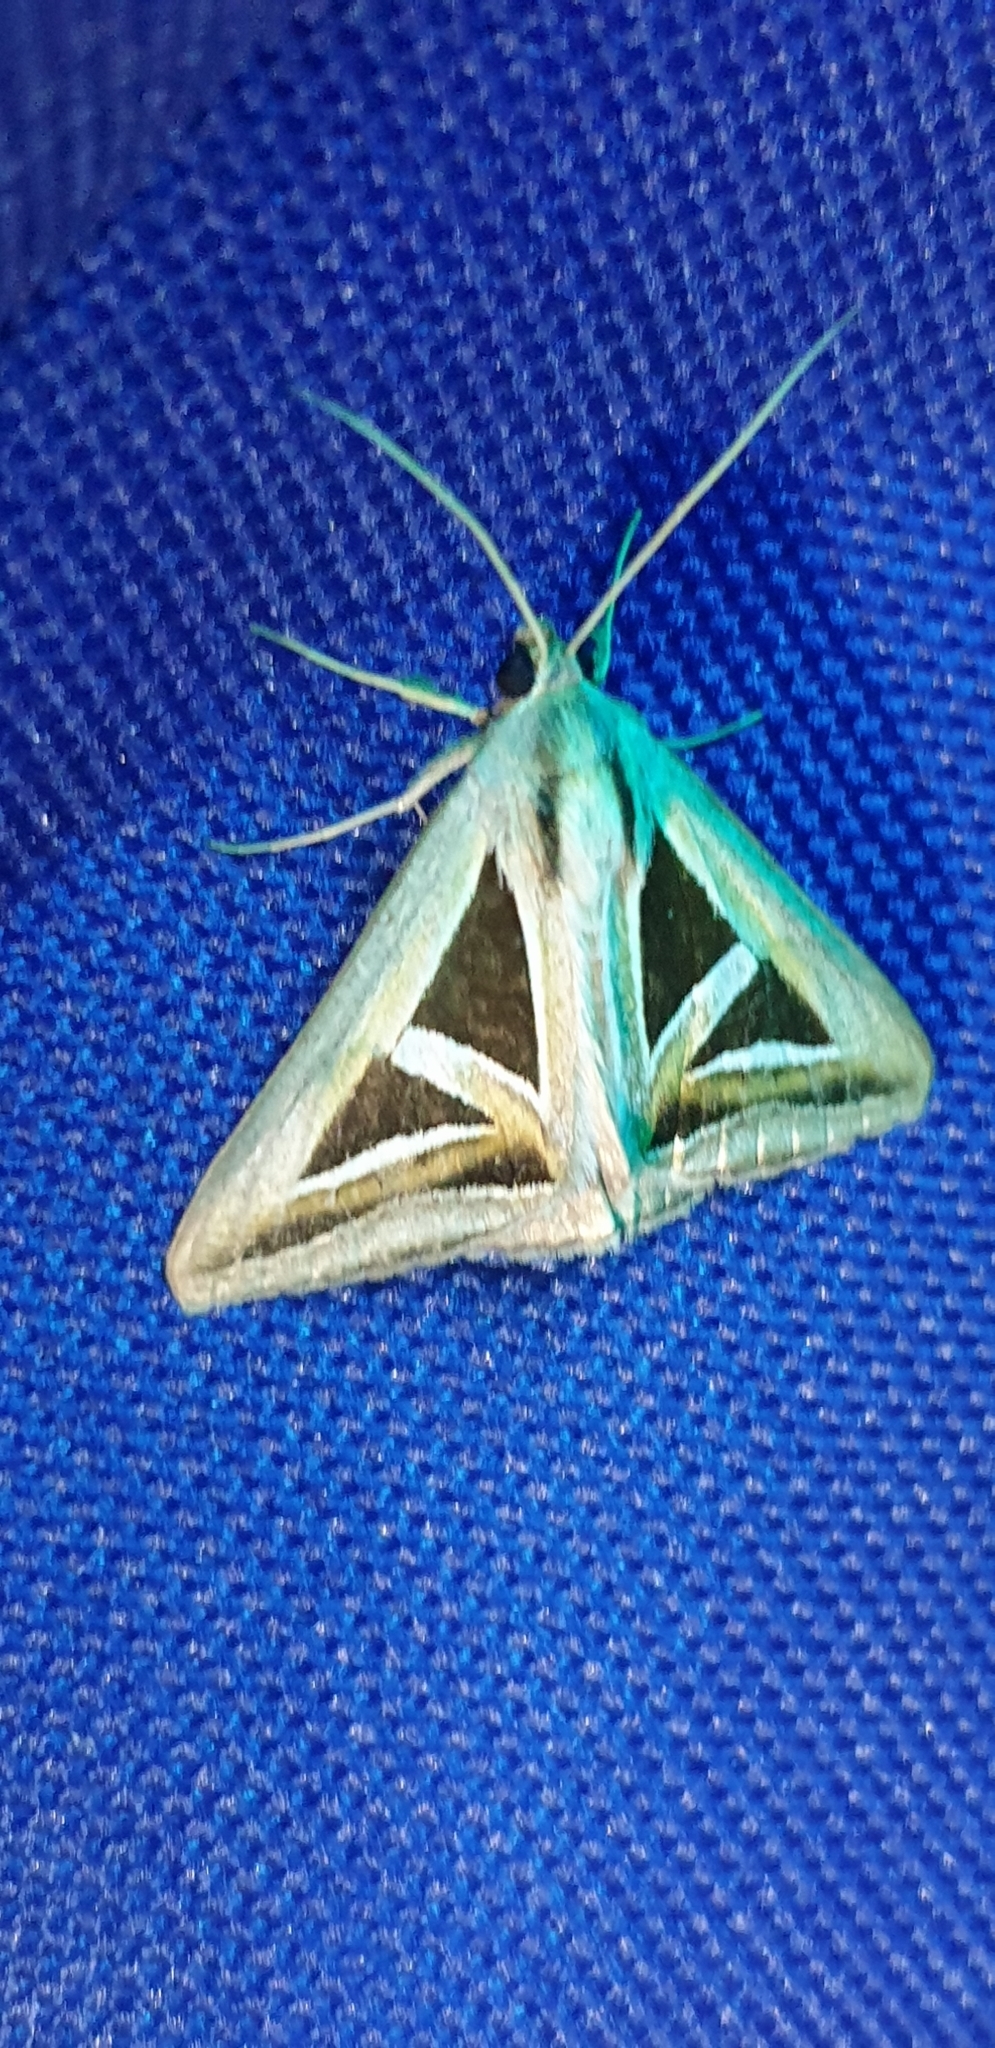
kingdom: Animalia
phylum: Arthropoda
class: Insecta
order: Lepidoptera
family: Erebidae
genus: Trigonodes
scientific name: Trigonodes hyppasia
